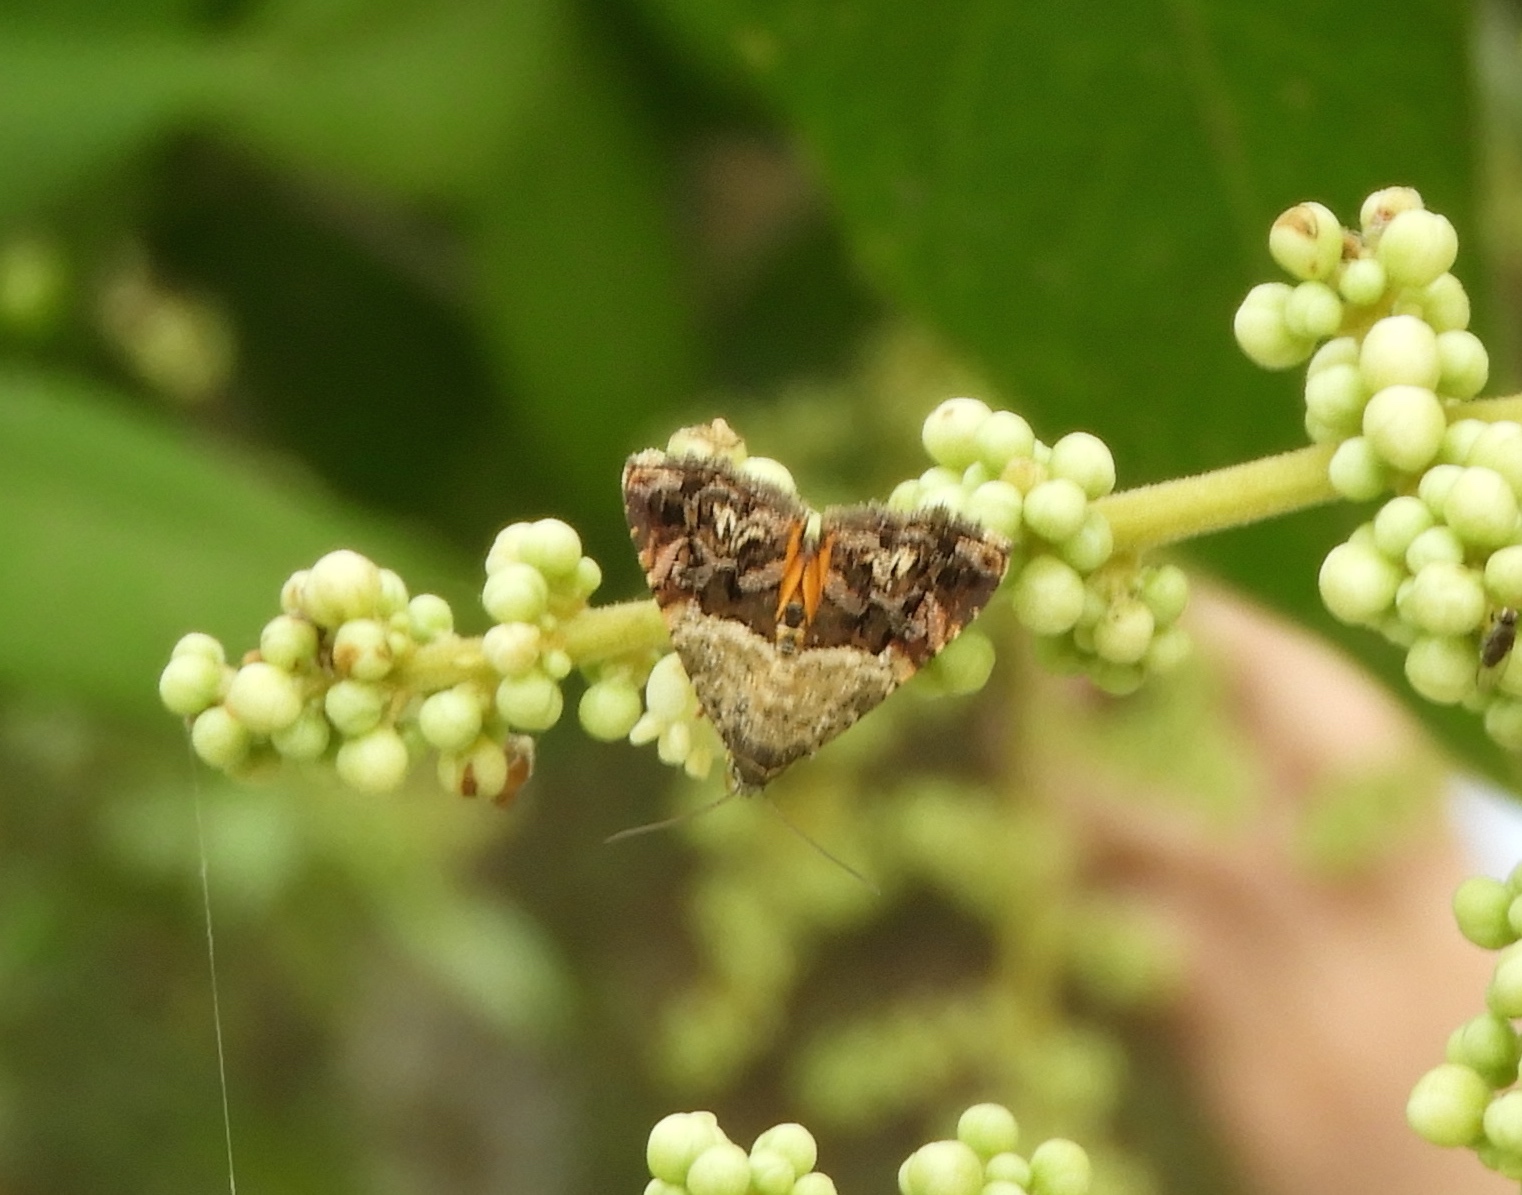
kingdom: Animalia
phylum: Arthropoda
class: Insecta
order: Lepidoptera
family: Noctuidae
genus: Tripudia
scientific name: Tripudia
